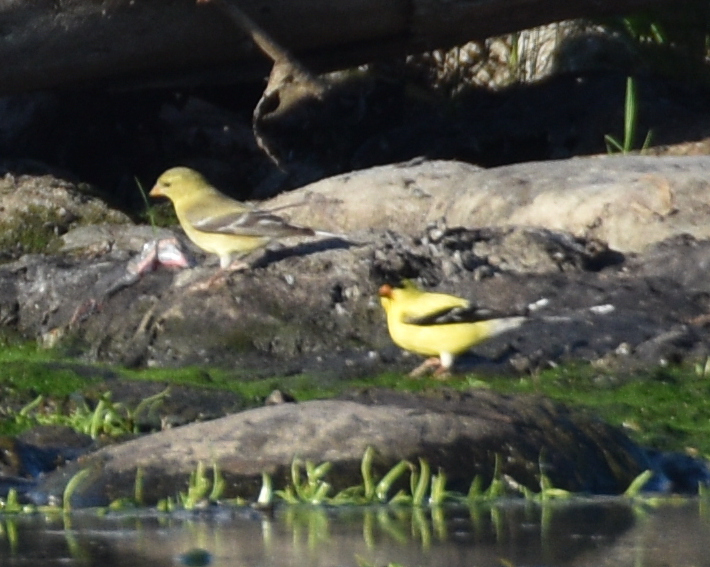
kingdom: Animalia
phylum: Chordata
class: Aves
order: Passeriformes
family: Fringillidae
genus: Spinus
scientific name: Spinus tristis
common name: American goldfinch
